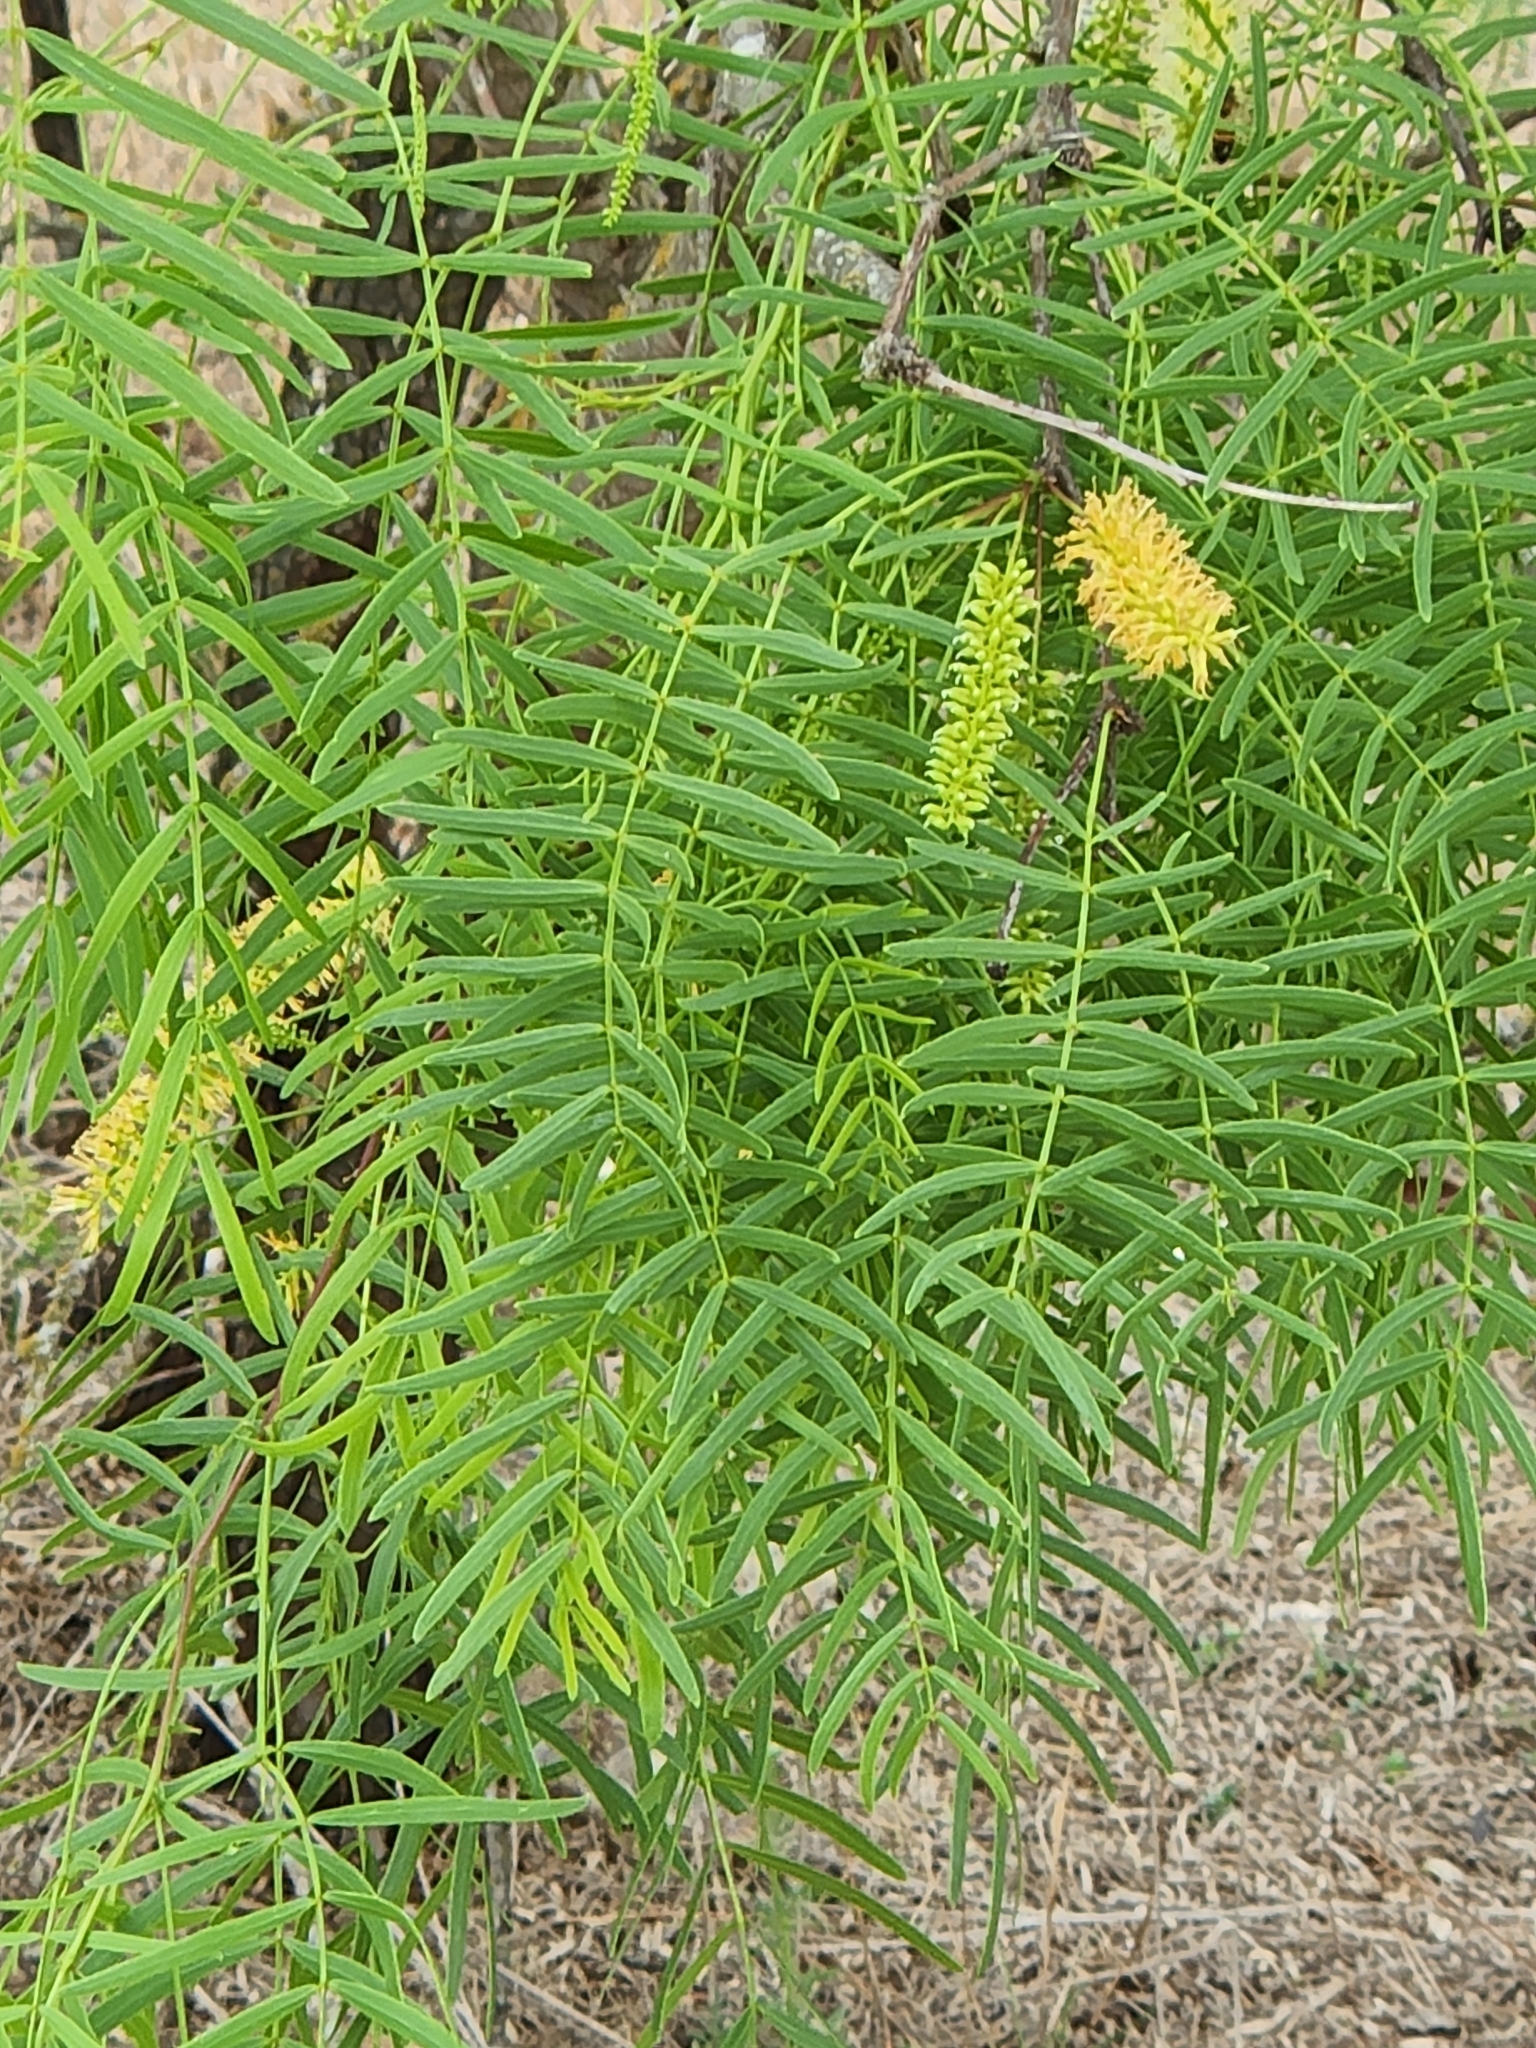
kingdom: Plantae
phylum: Tracheophyta
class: Magnoliopsida
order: Fabales
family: Fabaceae
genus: Prosopis
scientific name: Prosopis glandulosa
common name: Honey mesquite
